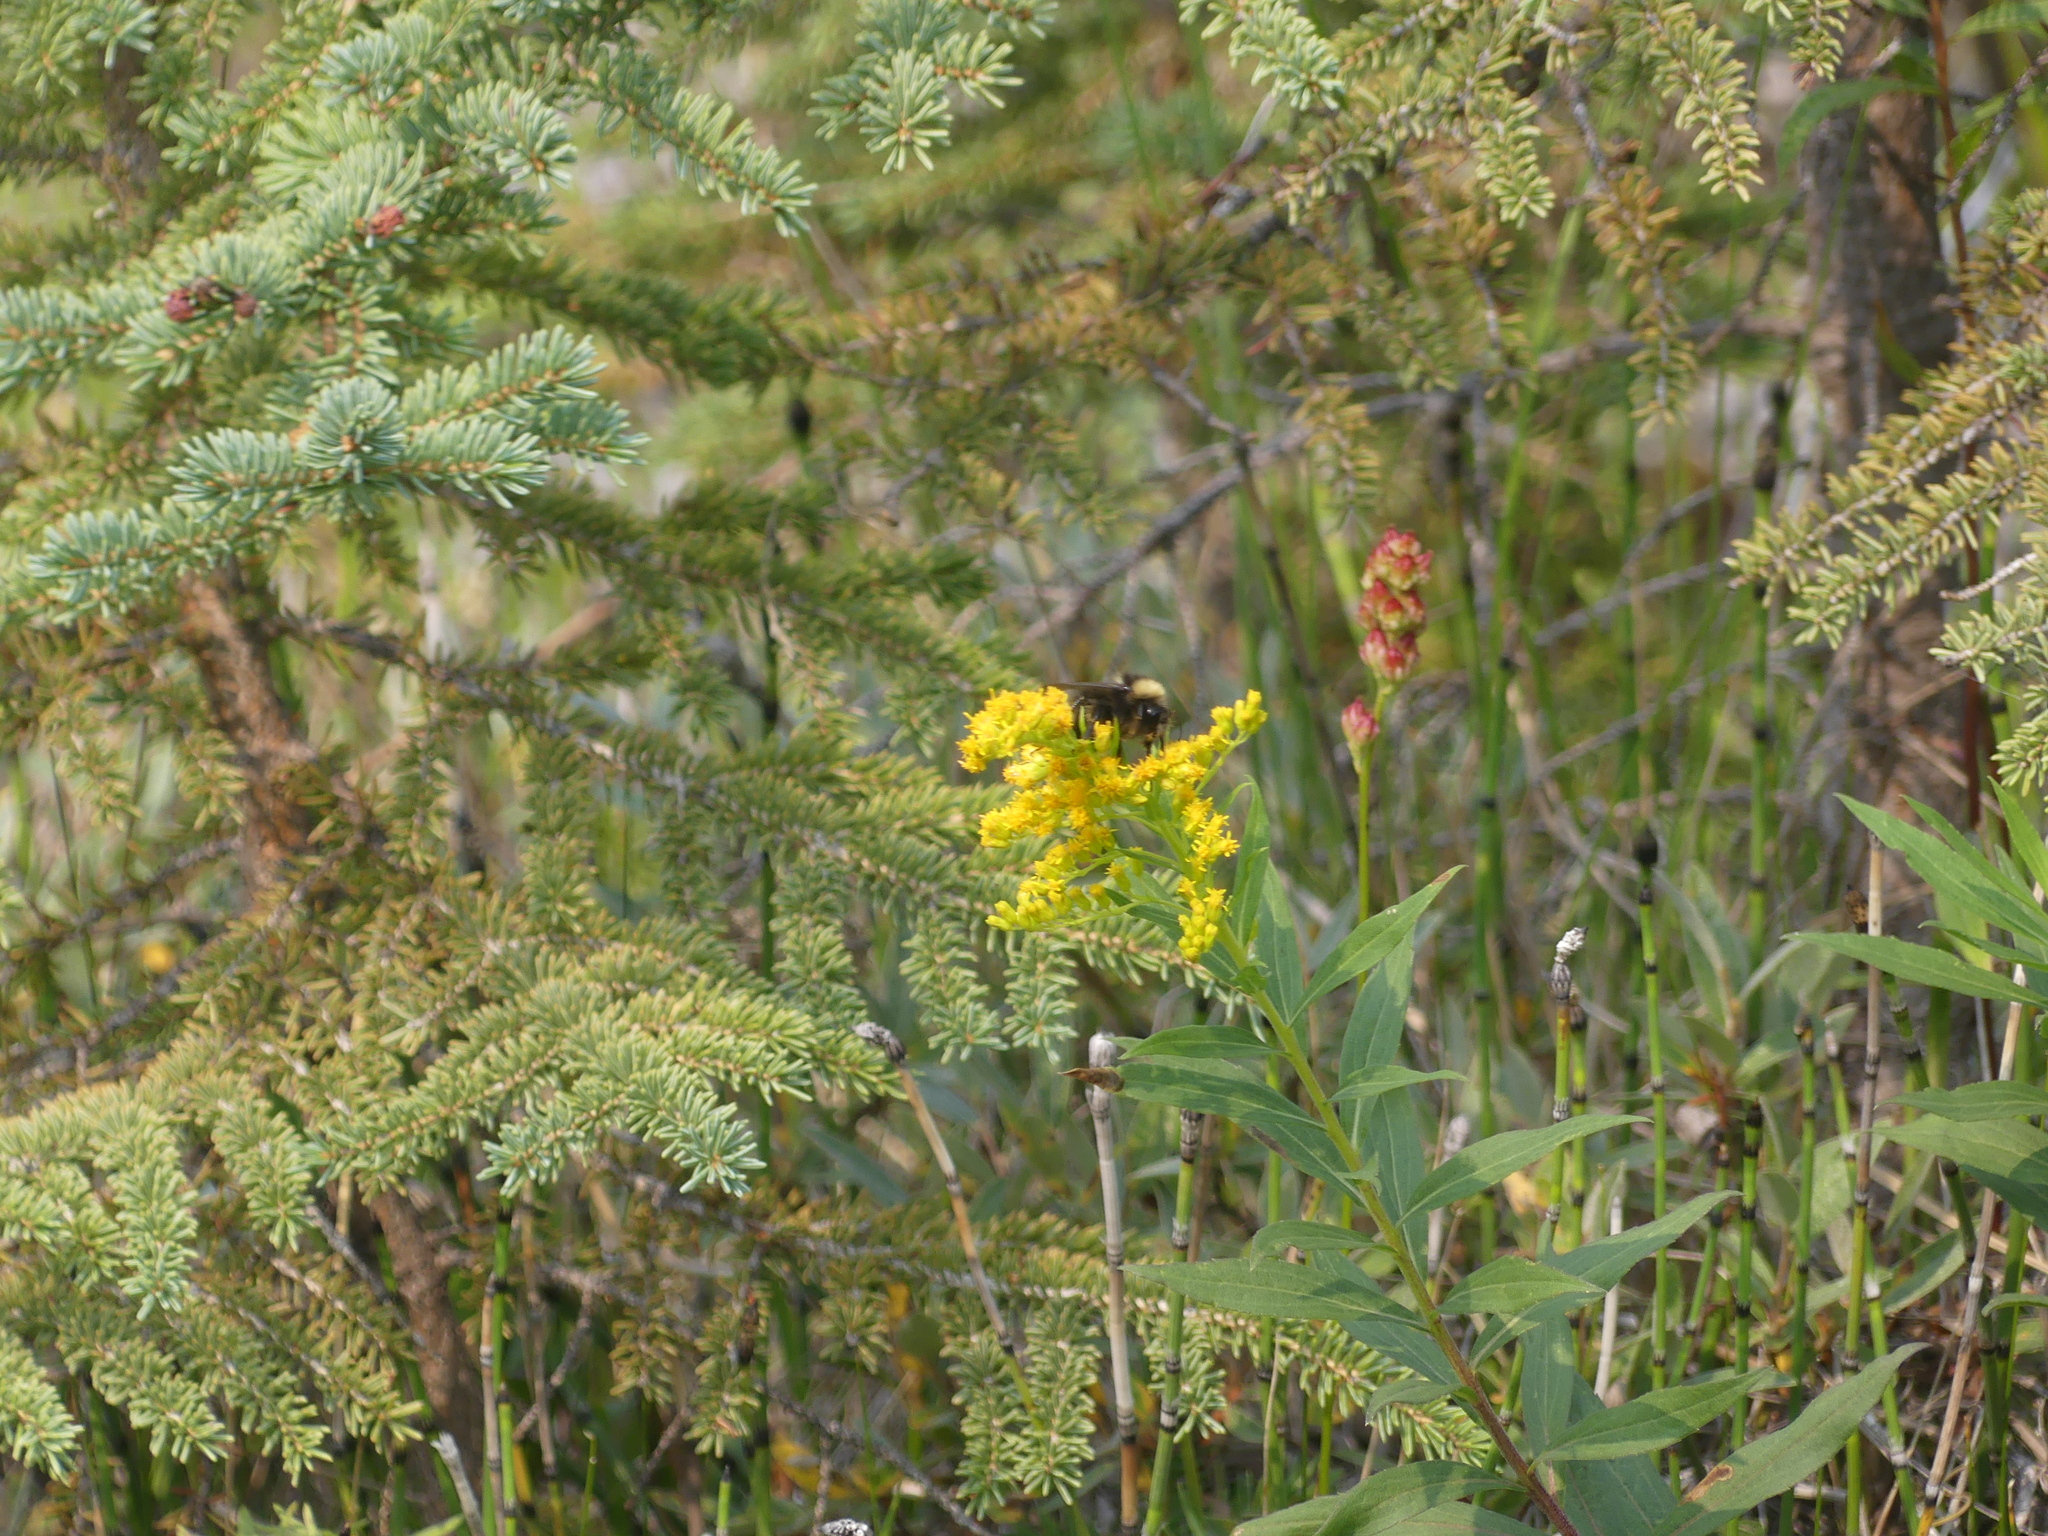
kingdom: Animalia
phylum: Arthropoda
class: Insecta
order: Hymenoptera
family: Apidae
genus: Bombus
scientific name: Bombus mckayi
